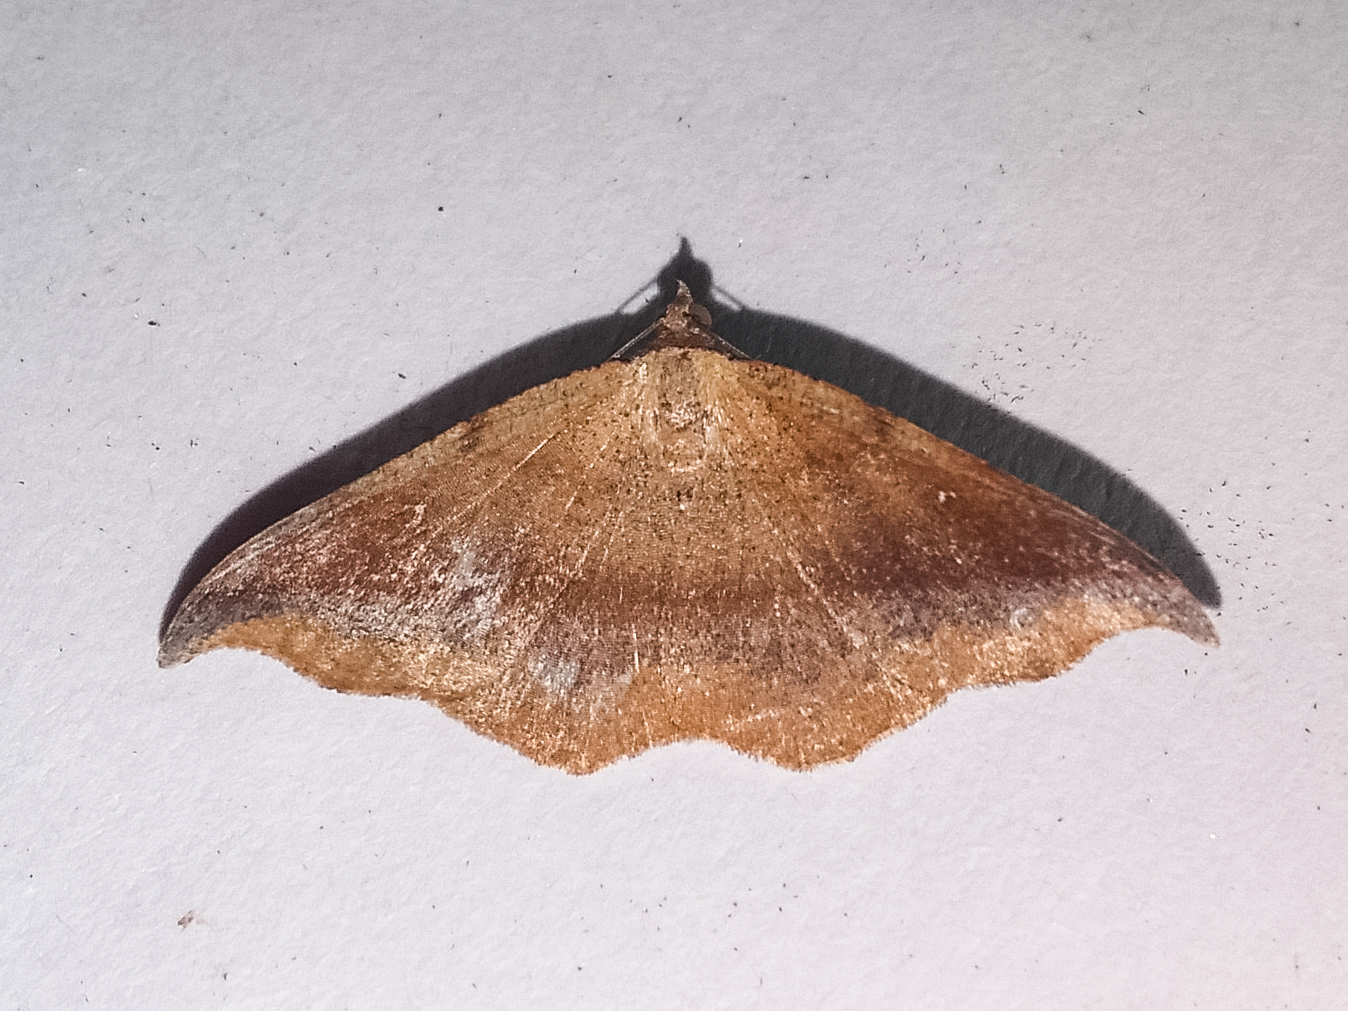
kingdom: Animalia
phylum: Arthropoda
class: Insecta
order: Lepidoptera
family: Geometridae
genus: Sarisa
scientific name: Sarisa muriferata
